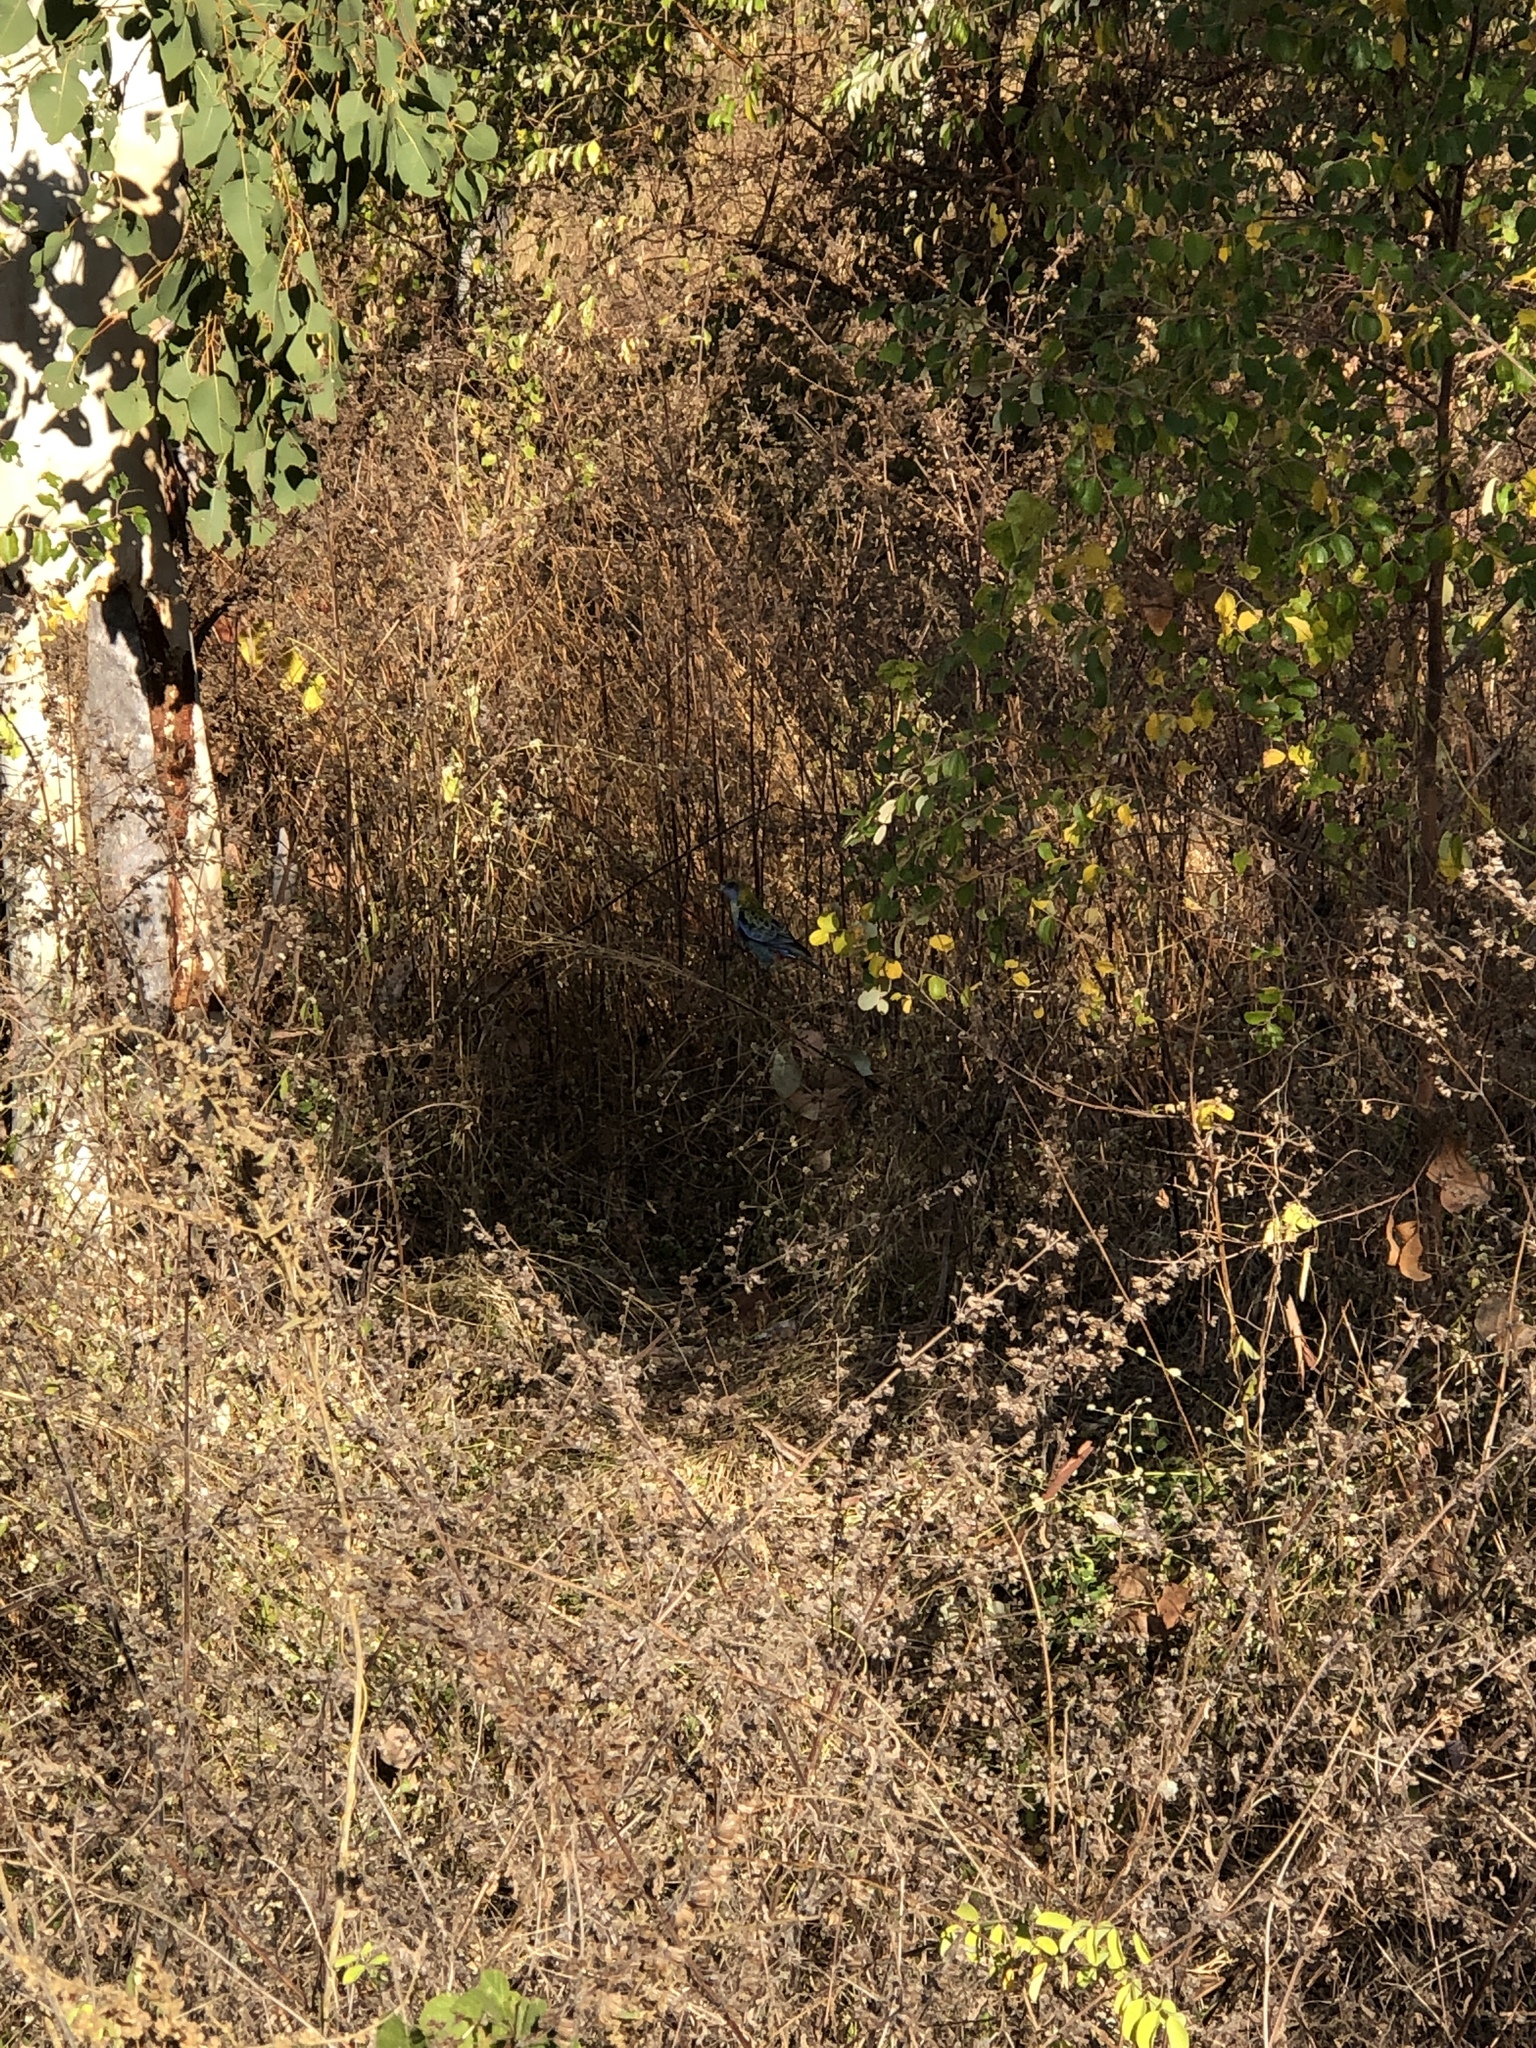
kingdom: Animalia
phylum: Chordata
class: Aves
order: Psittaciformes
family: Psittacidae
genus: Platycercus
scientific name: Platycercus adscitus
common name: Pale-headed rosella
